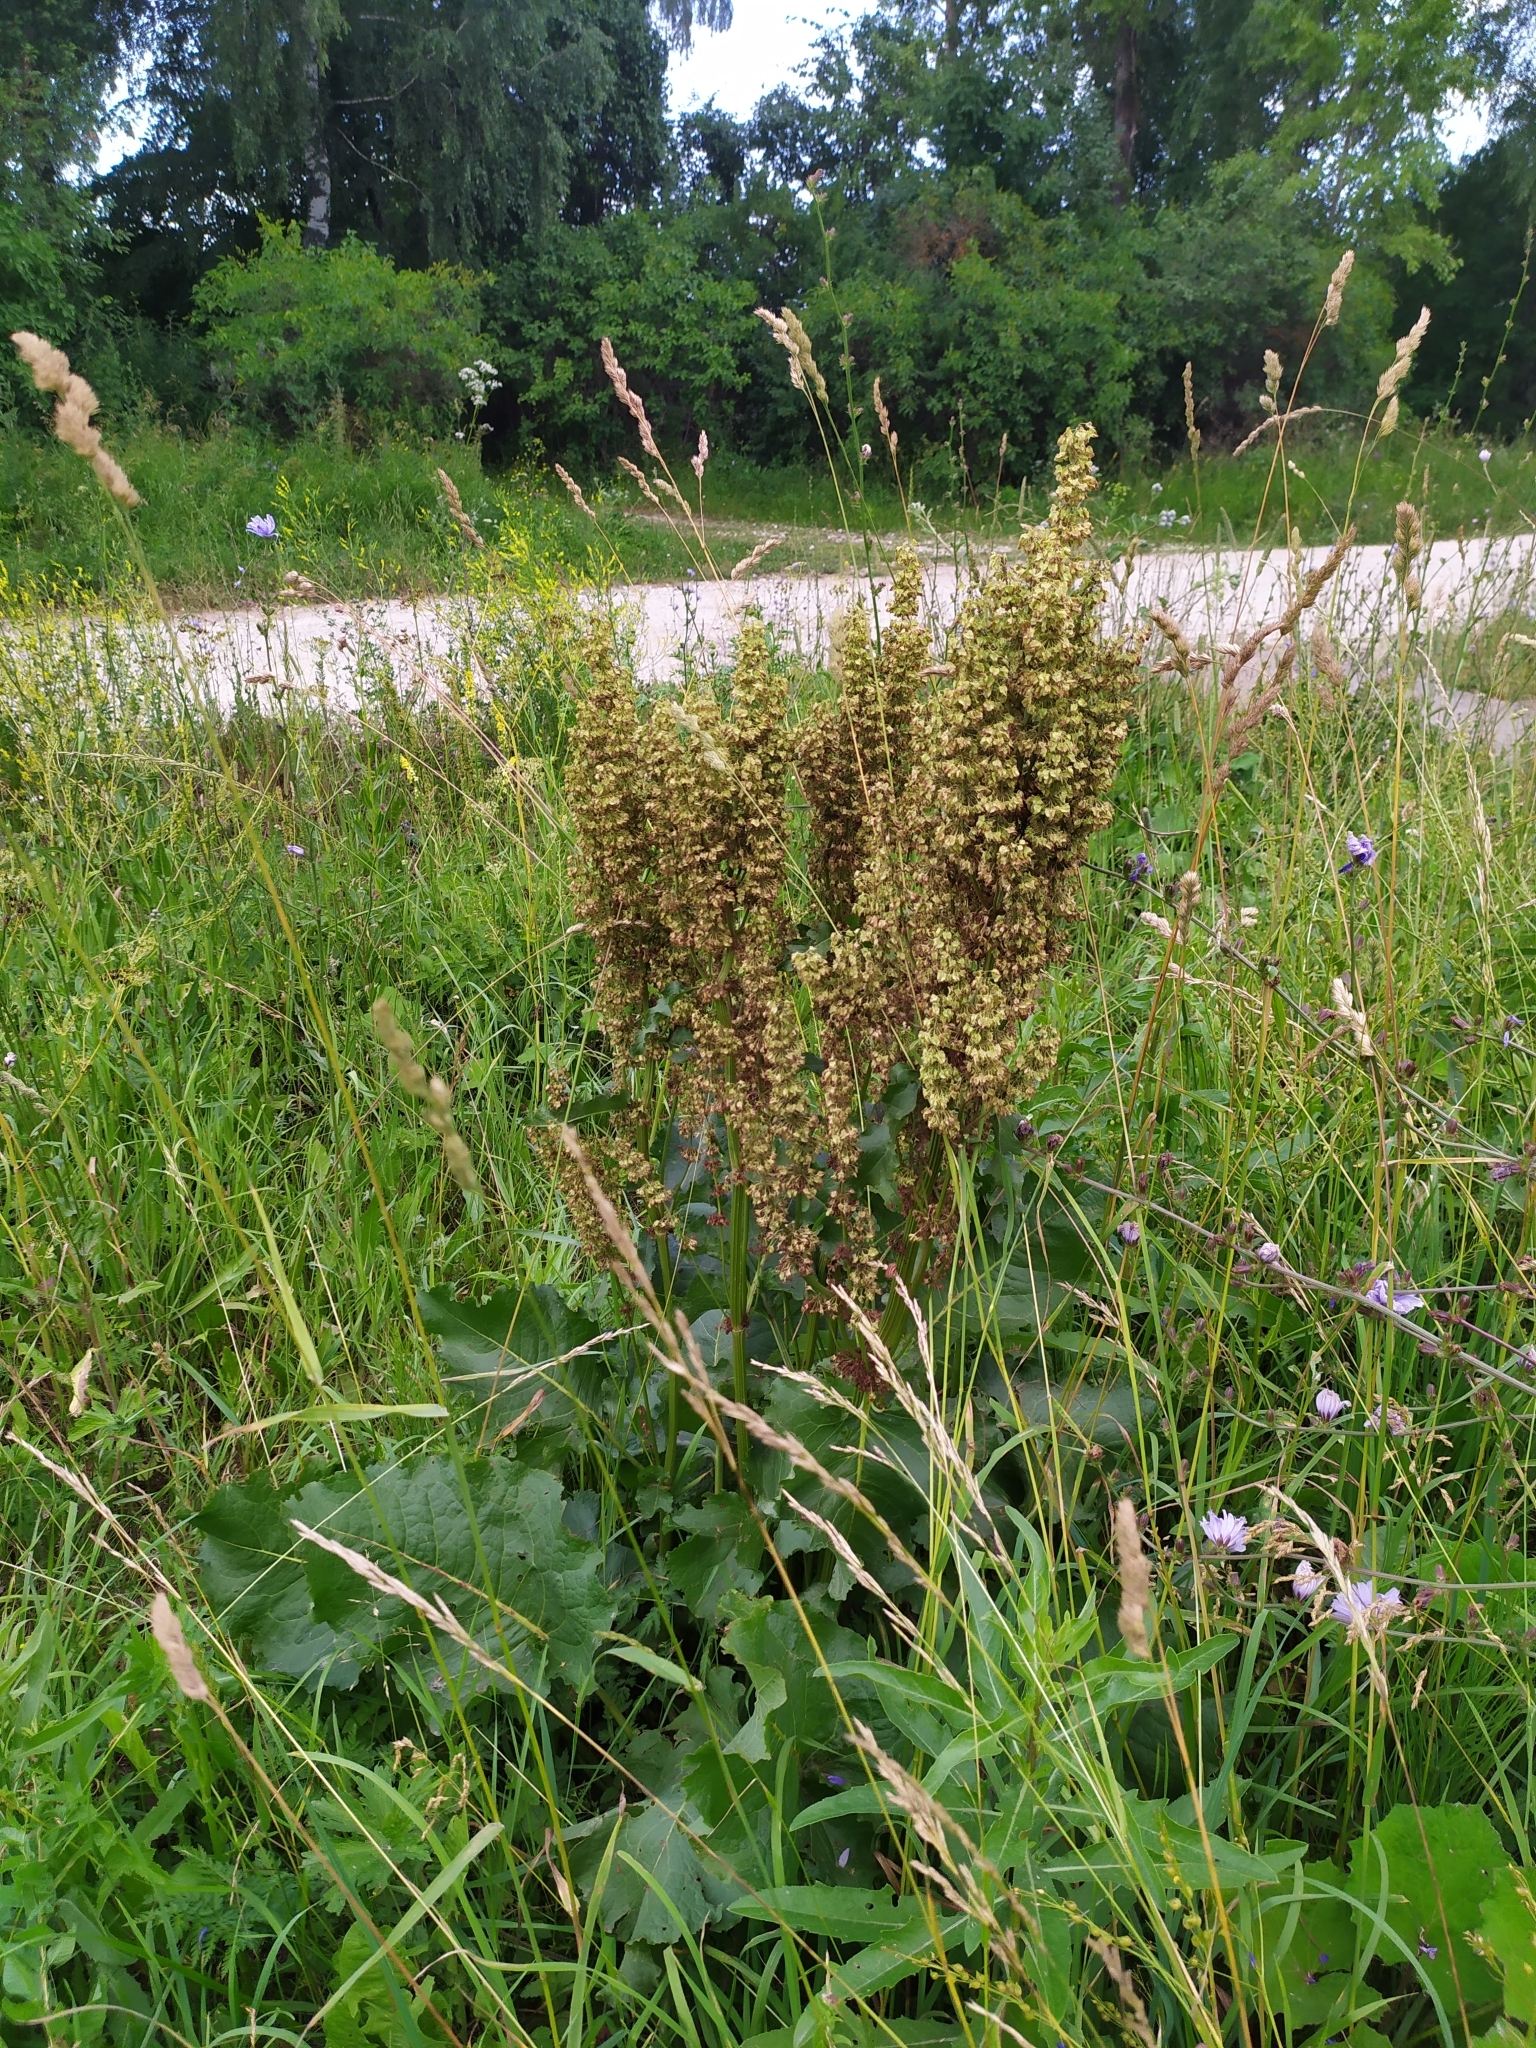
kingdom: Plantae
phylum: Tracheophyta
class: Magnoliopsida
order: Caryophyllales
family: Polygonaceae
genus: Rumex
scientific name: Rumex confertus
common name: Russian dock
